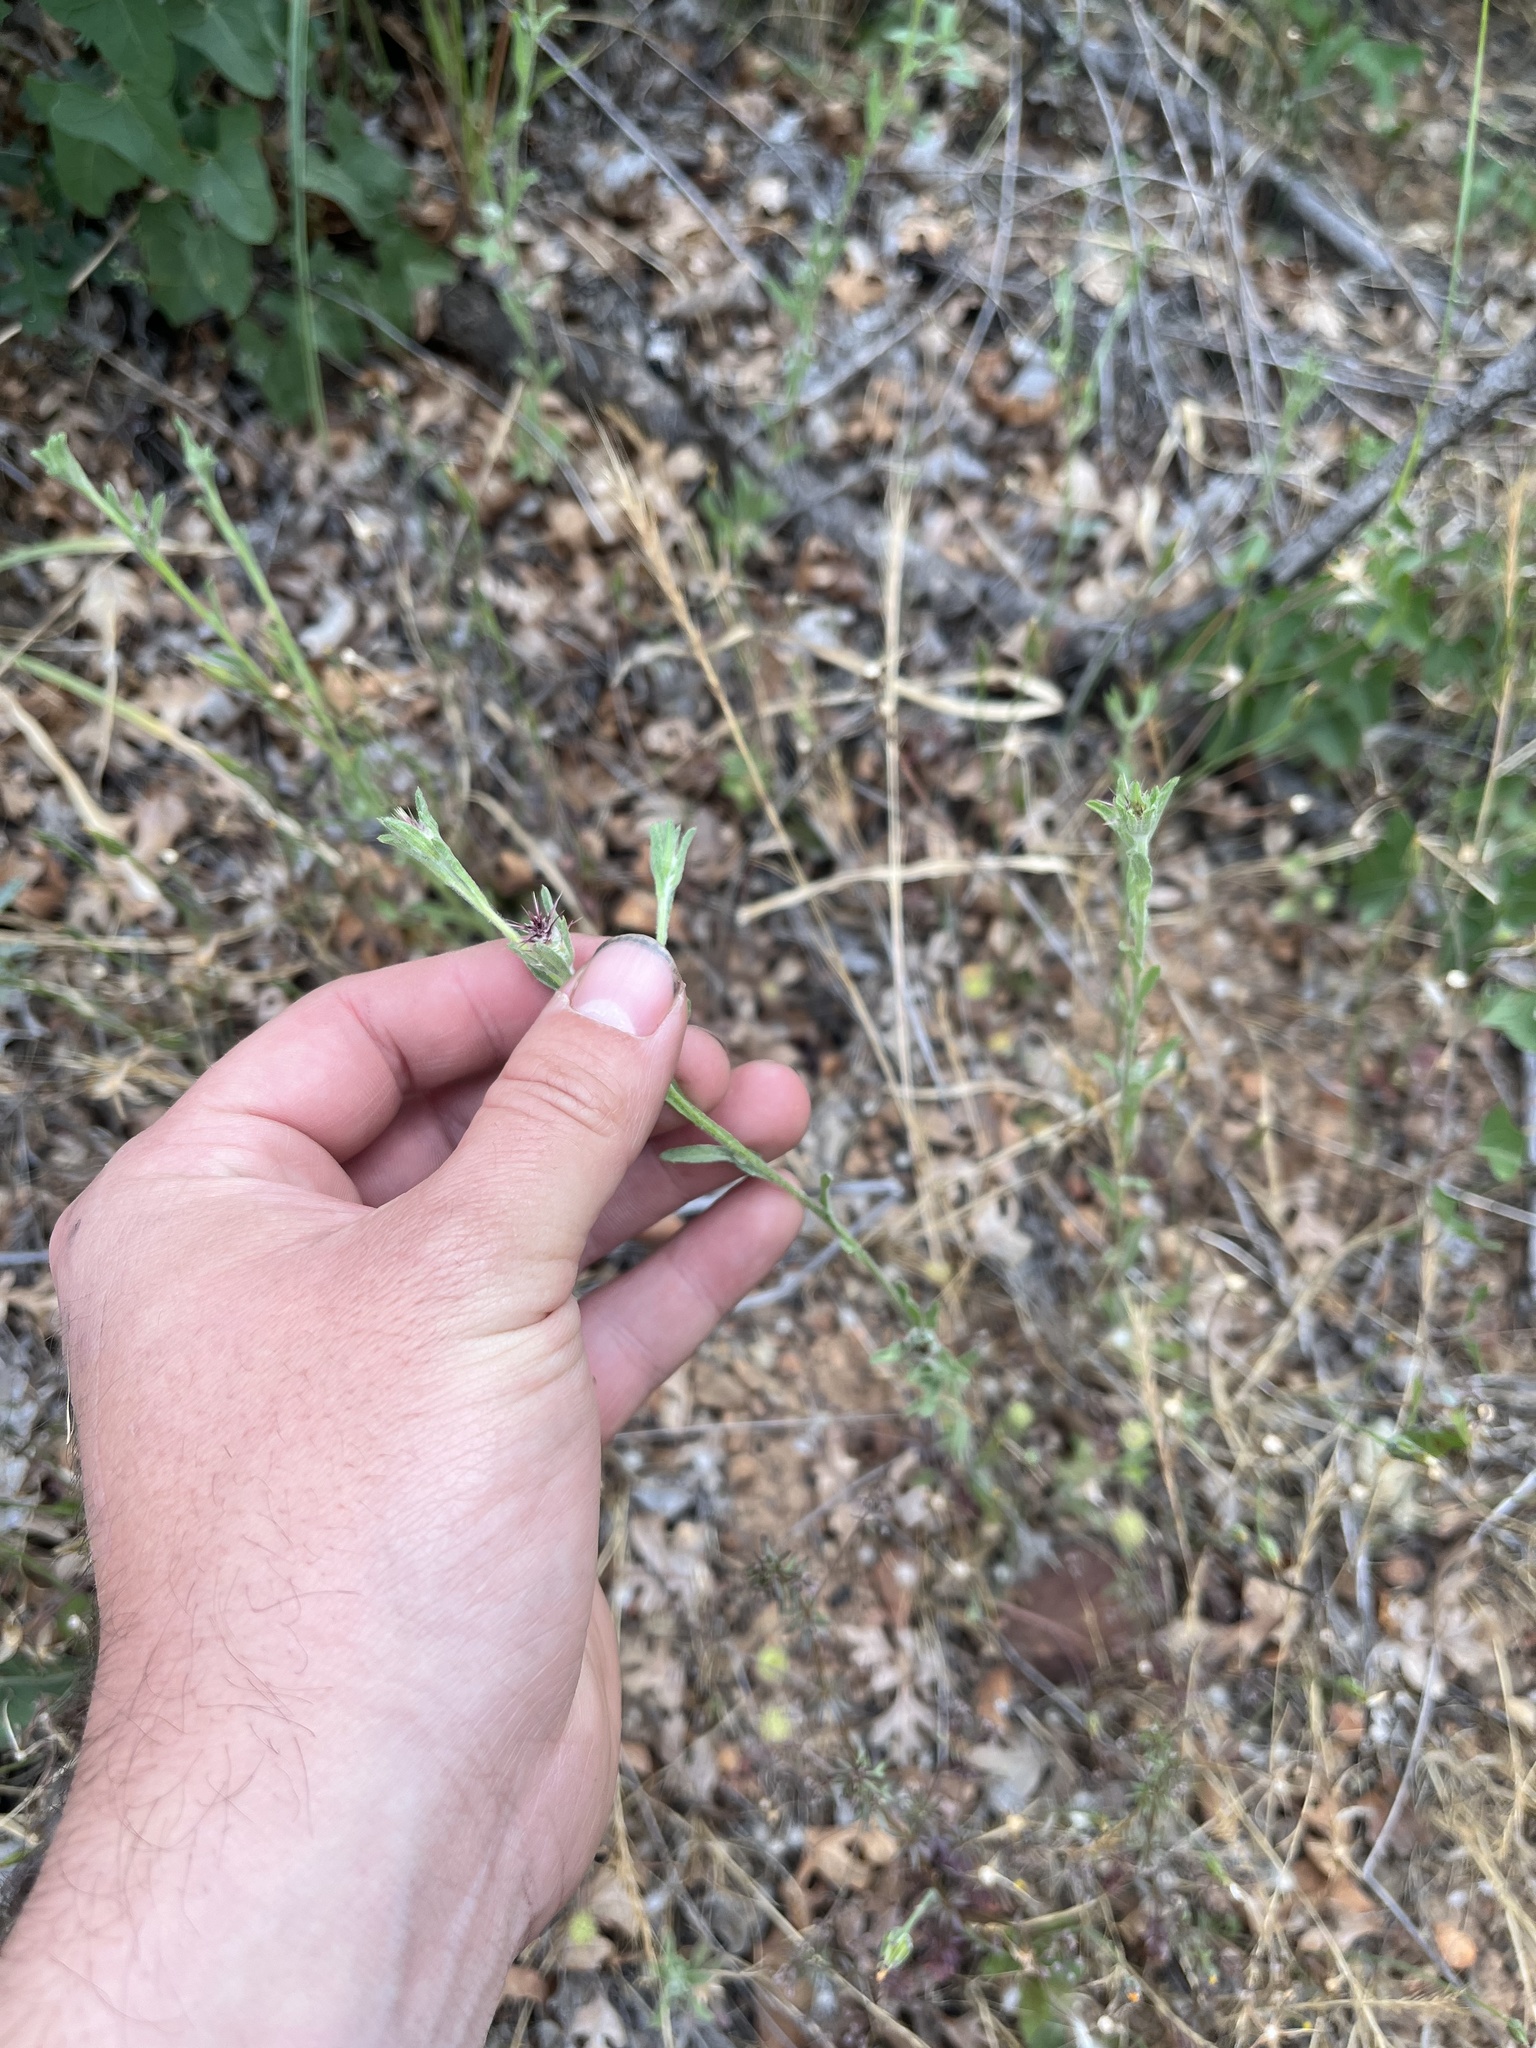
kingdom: Plantae
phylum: Tracheophyta
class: Magnoliopsida
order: Asterales
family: Asteraceae
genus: Centaurea
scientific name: Centaurea melitensis
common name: Maltese star-thistle
